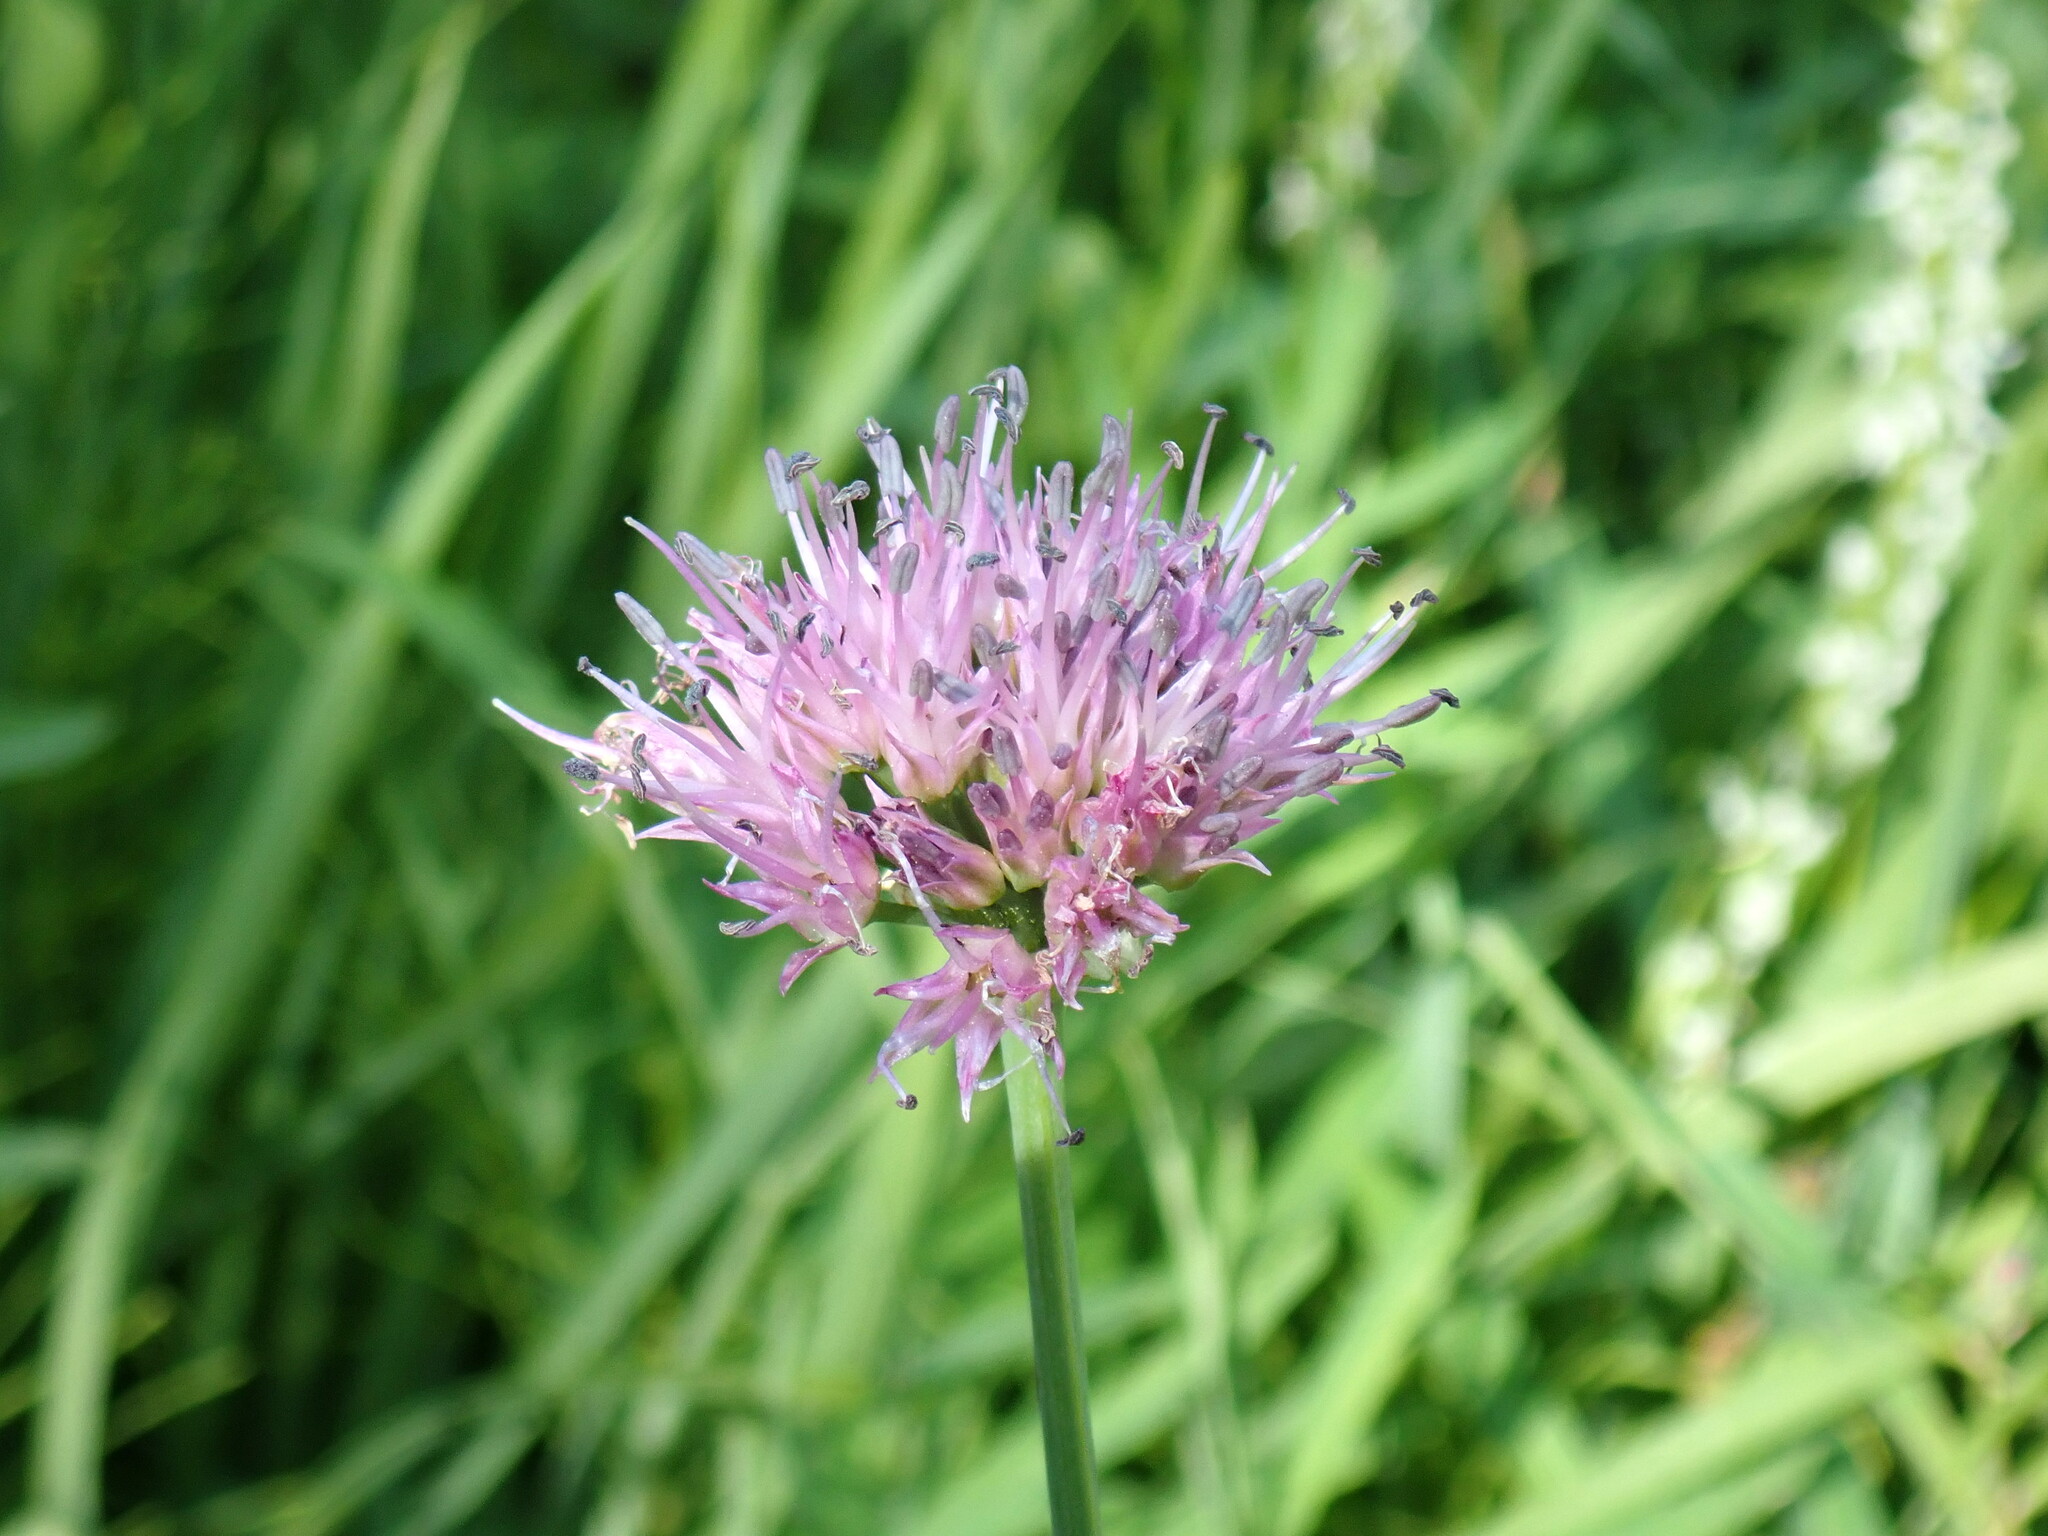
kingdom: Plantae
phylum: Tracheophyta
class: Liliopsida
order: Asparagales
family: Amaryllidaceae
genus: Allium
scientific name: Allium validum
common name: Pacific mountain onion
